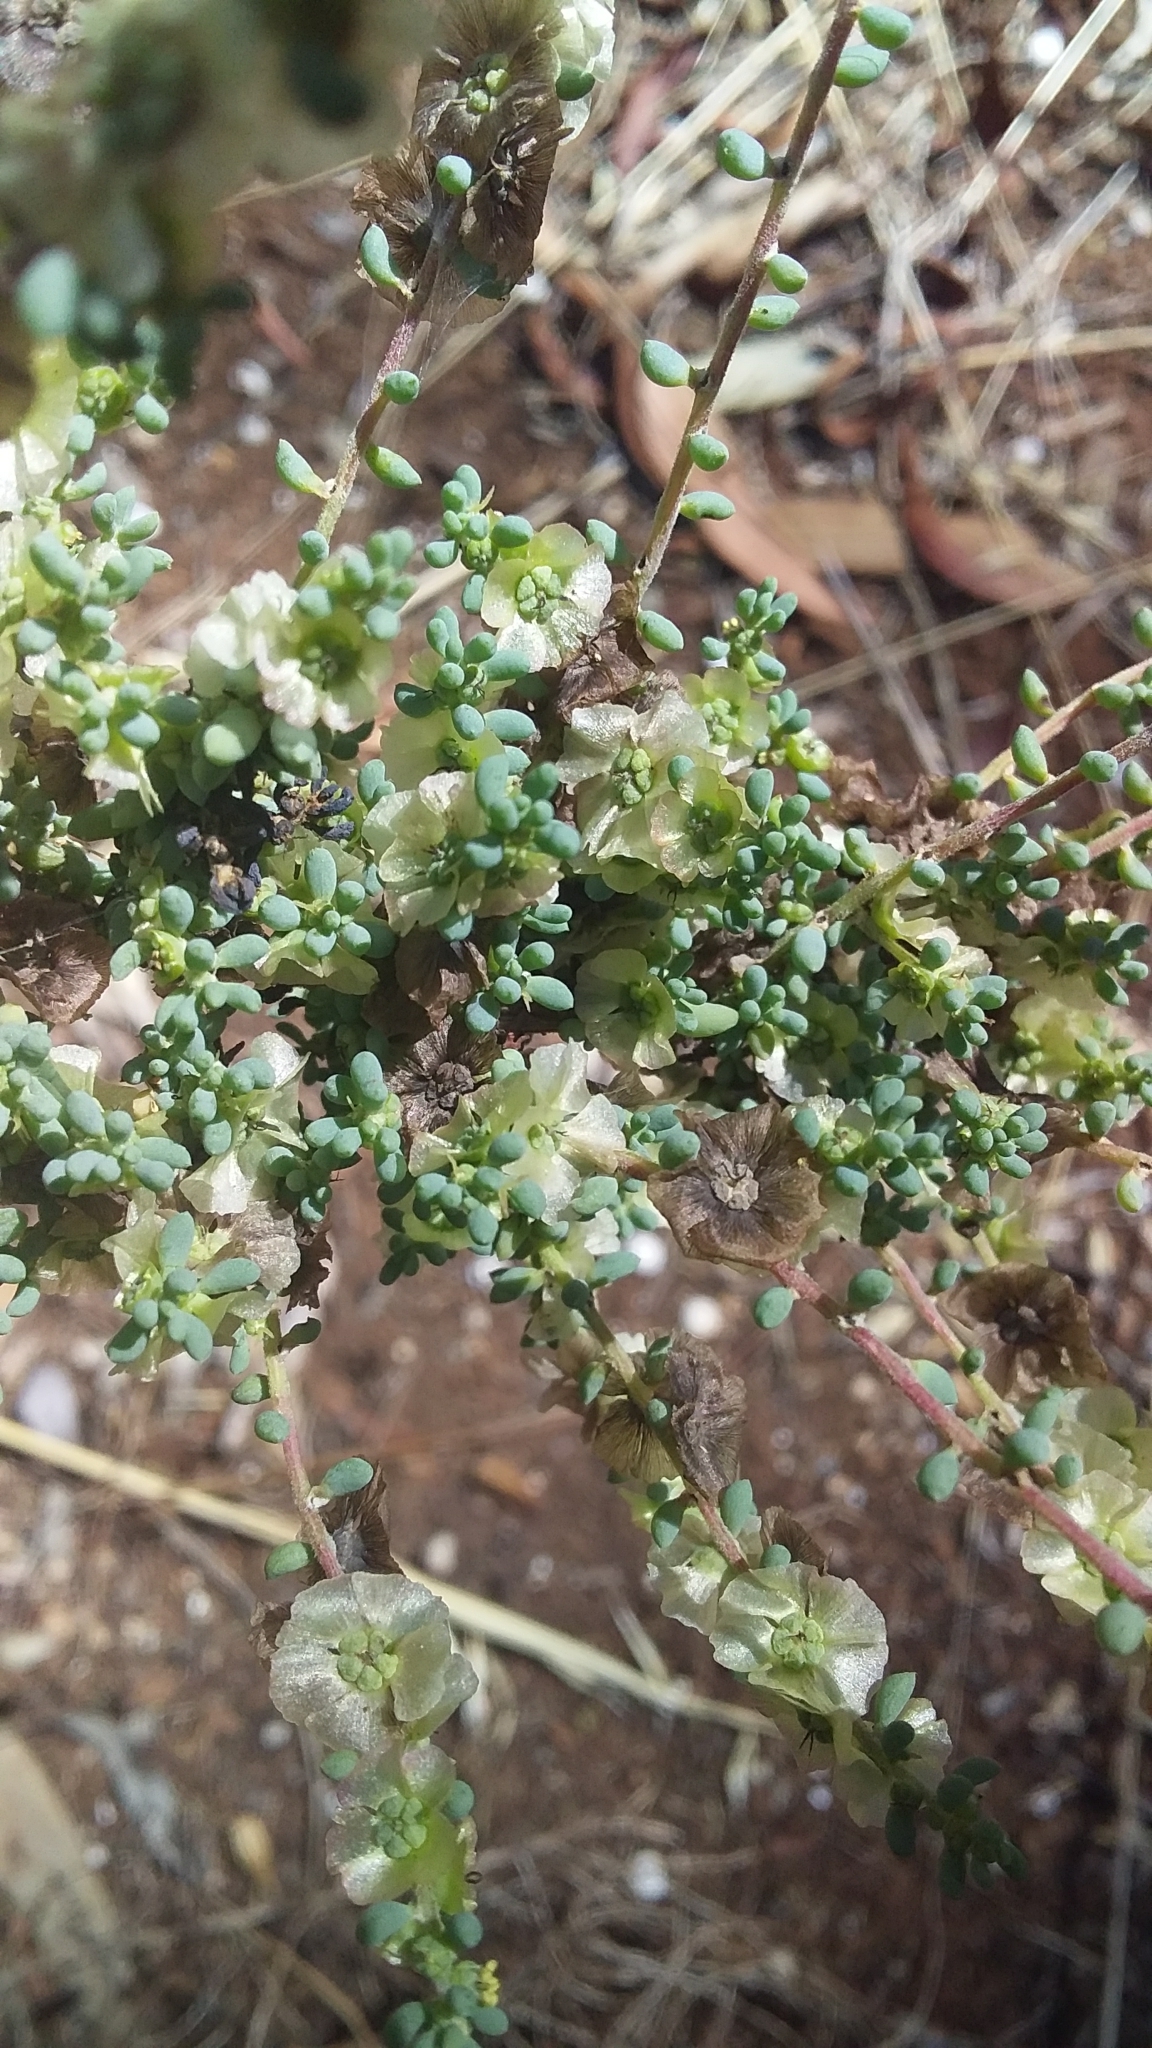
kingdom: Plantae
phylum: Tracheophyta
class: Magnoliopsida
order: Caryophyllales
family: Amaranthaceae
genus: Maireana
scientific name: Maireana brevifolia
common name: Eastern cottonbush
